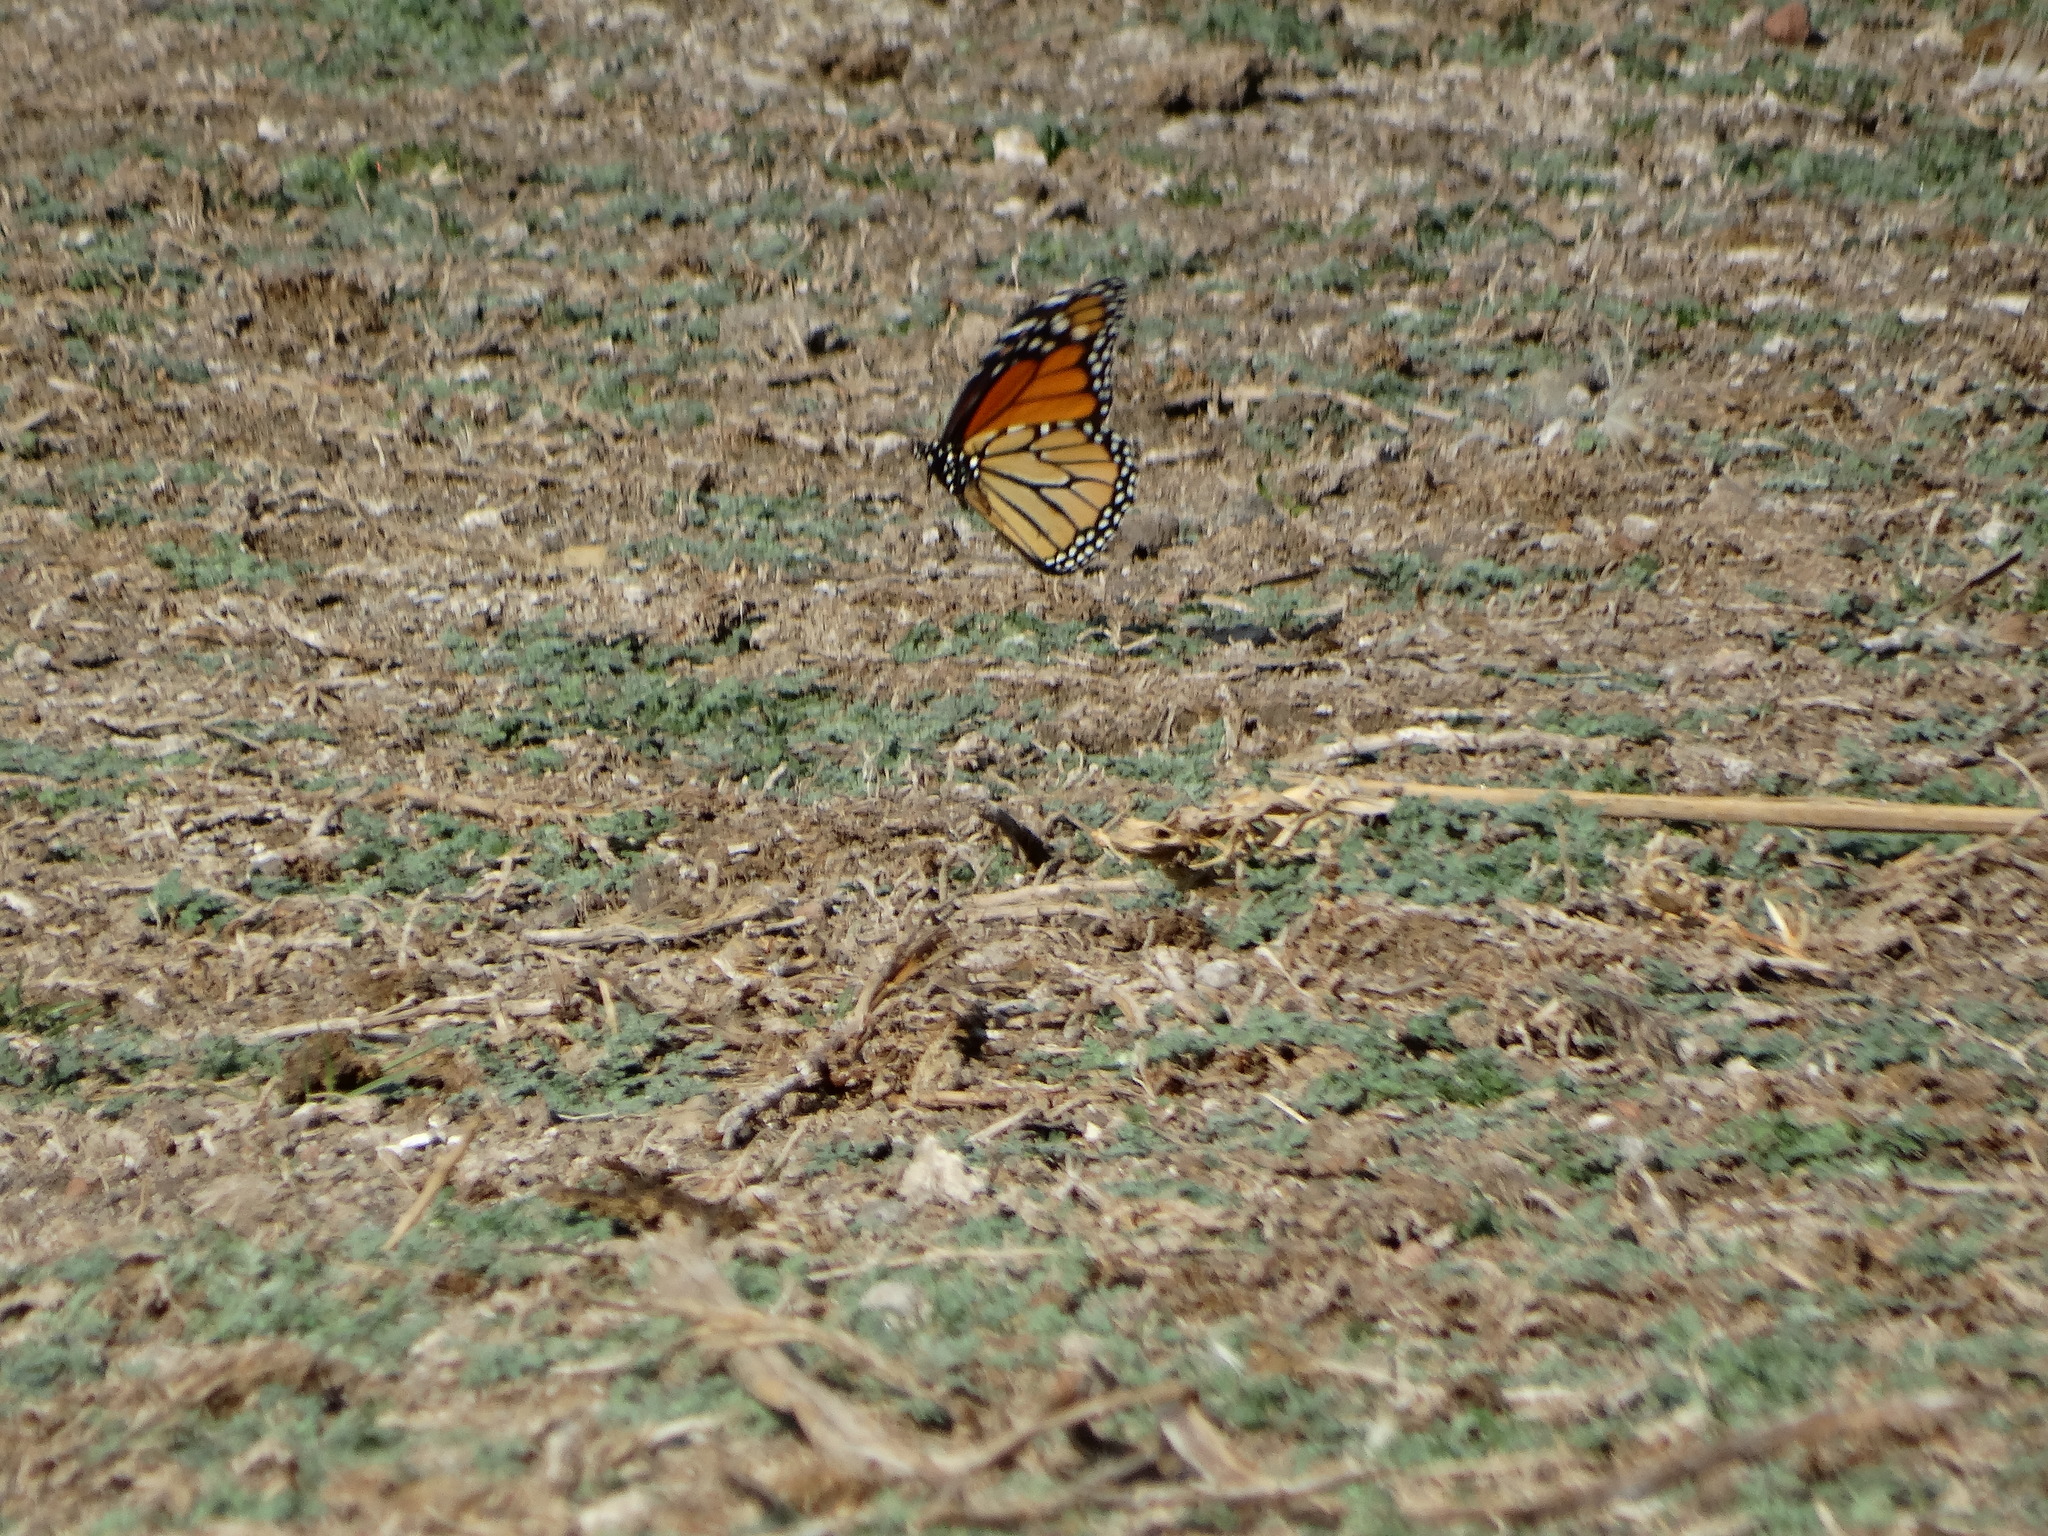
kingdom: Animalia
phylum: Arthropoda
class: Insecta
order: Lepidoptera
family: Nymphalidae
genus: Danaus
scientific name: Danaus plexippus
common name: Monarch
